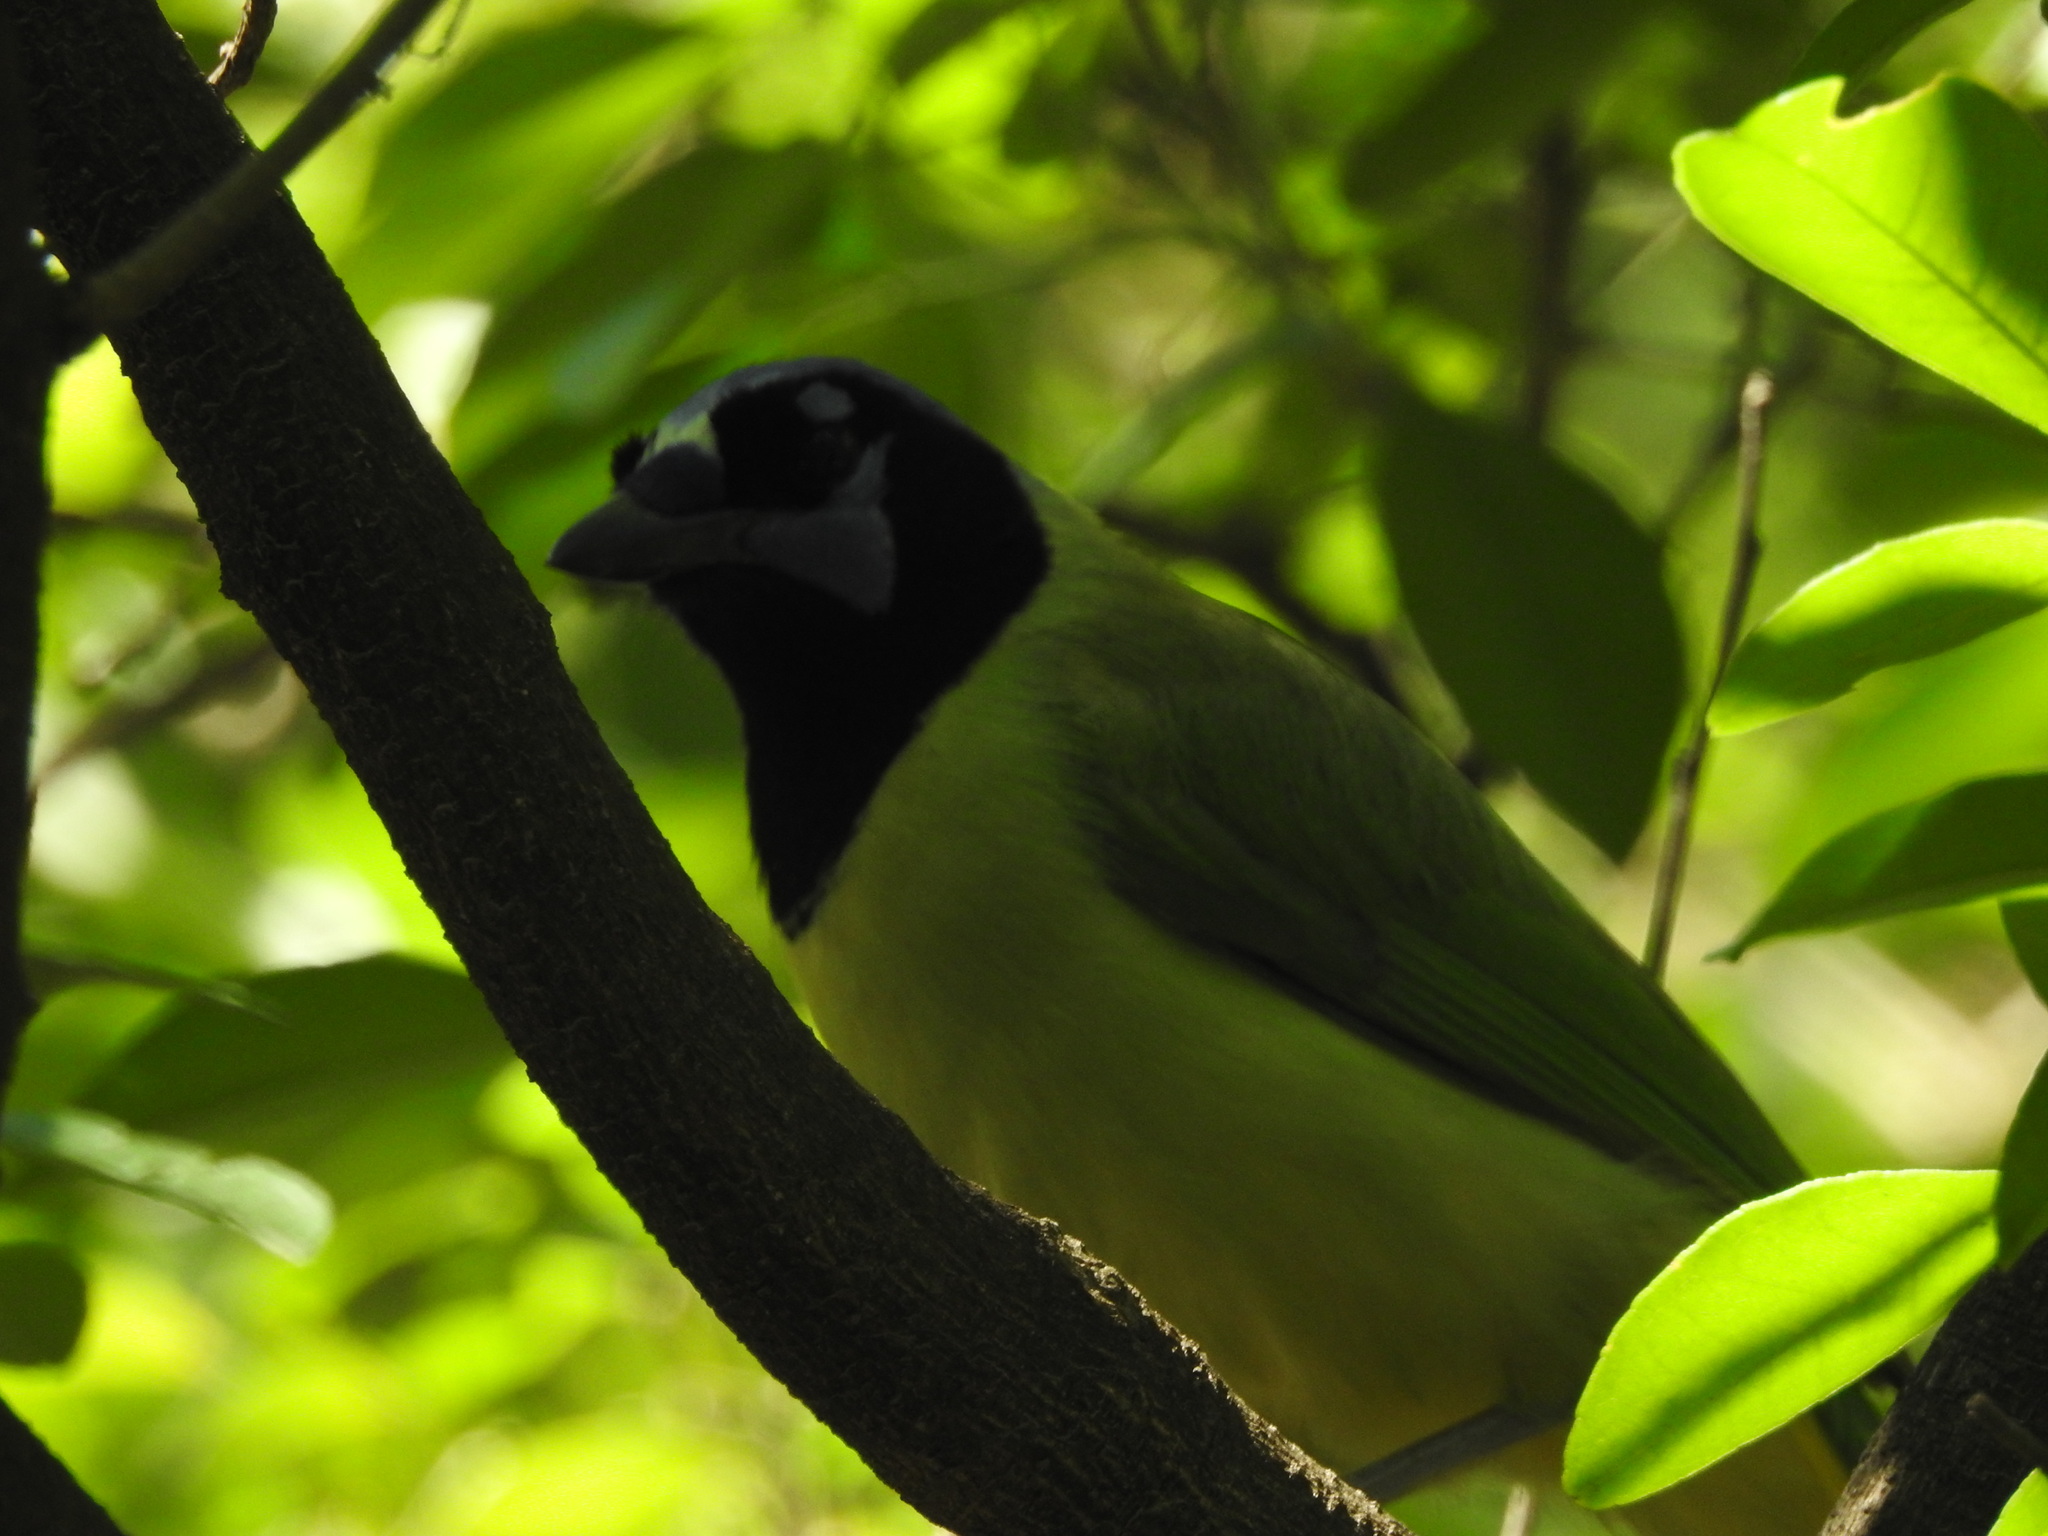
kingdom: Animalia
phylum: Chordata
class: Aves
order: Passeriformes
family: Corvidae
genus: Cyanocorax
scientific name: Cyanocorax yncas
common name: Green jay
